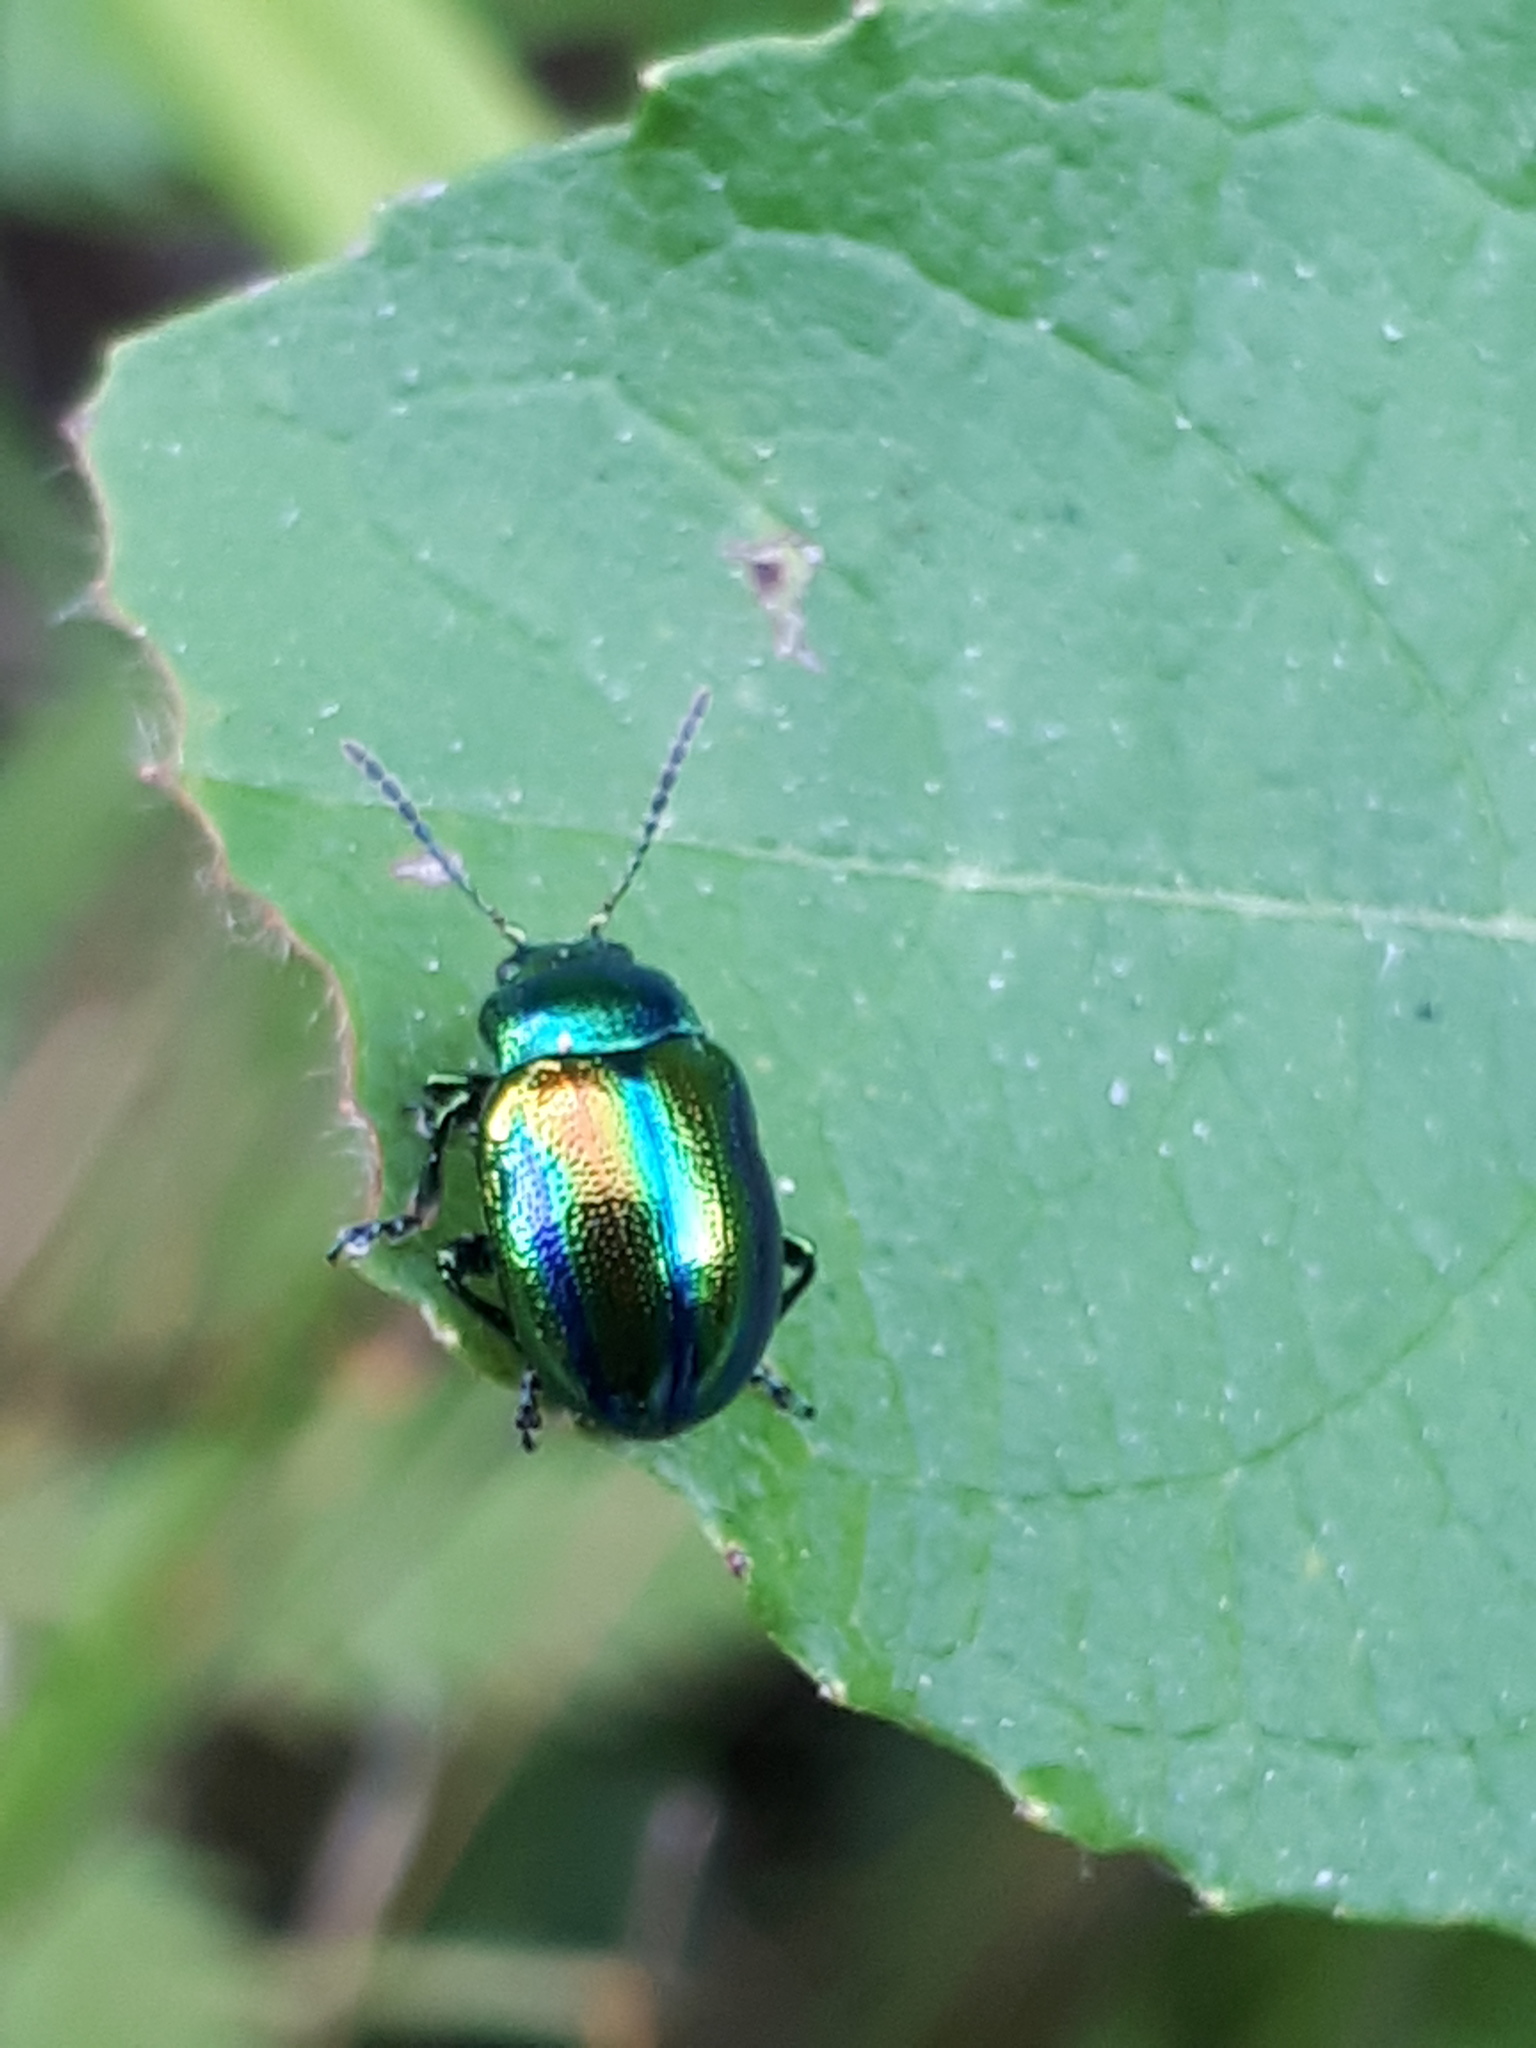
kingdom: Animalia
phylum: Arthropoda
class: Insecta
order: Coleoptera
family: Chrysomelidae
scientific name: Chrysomelidae
